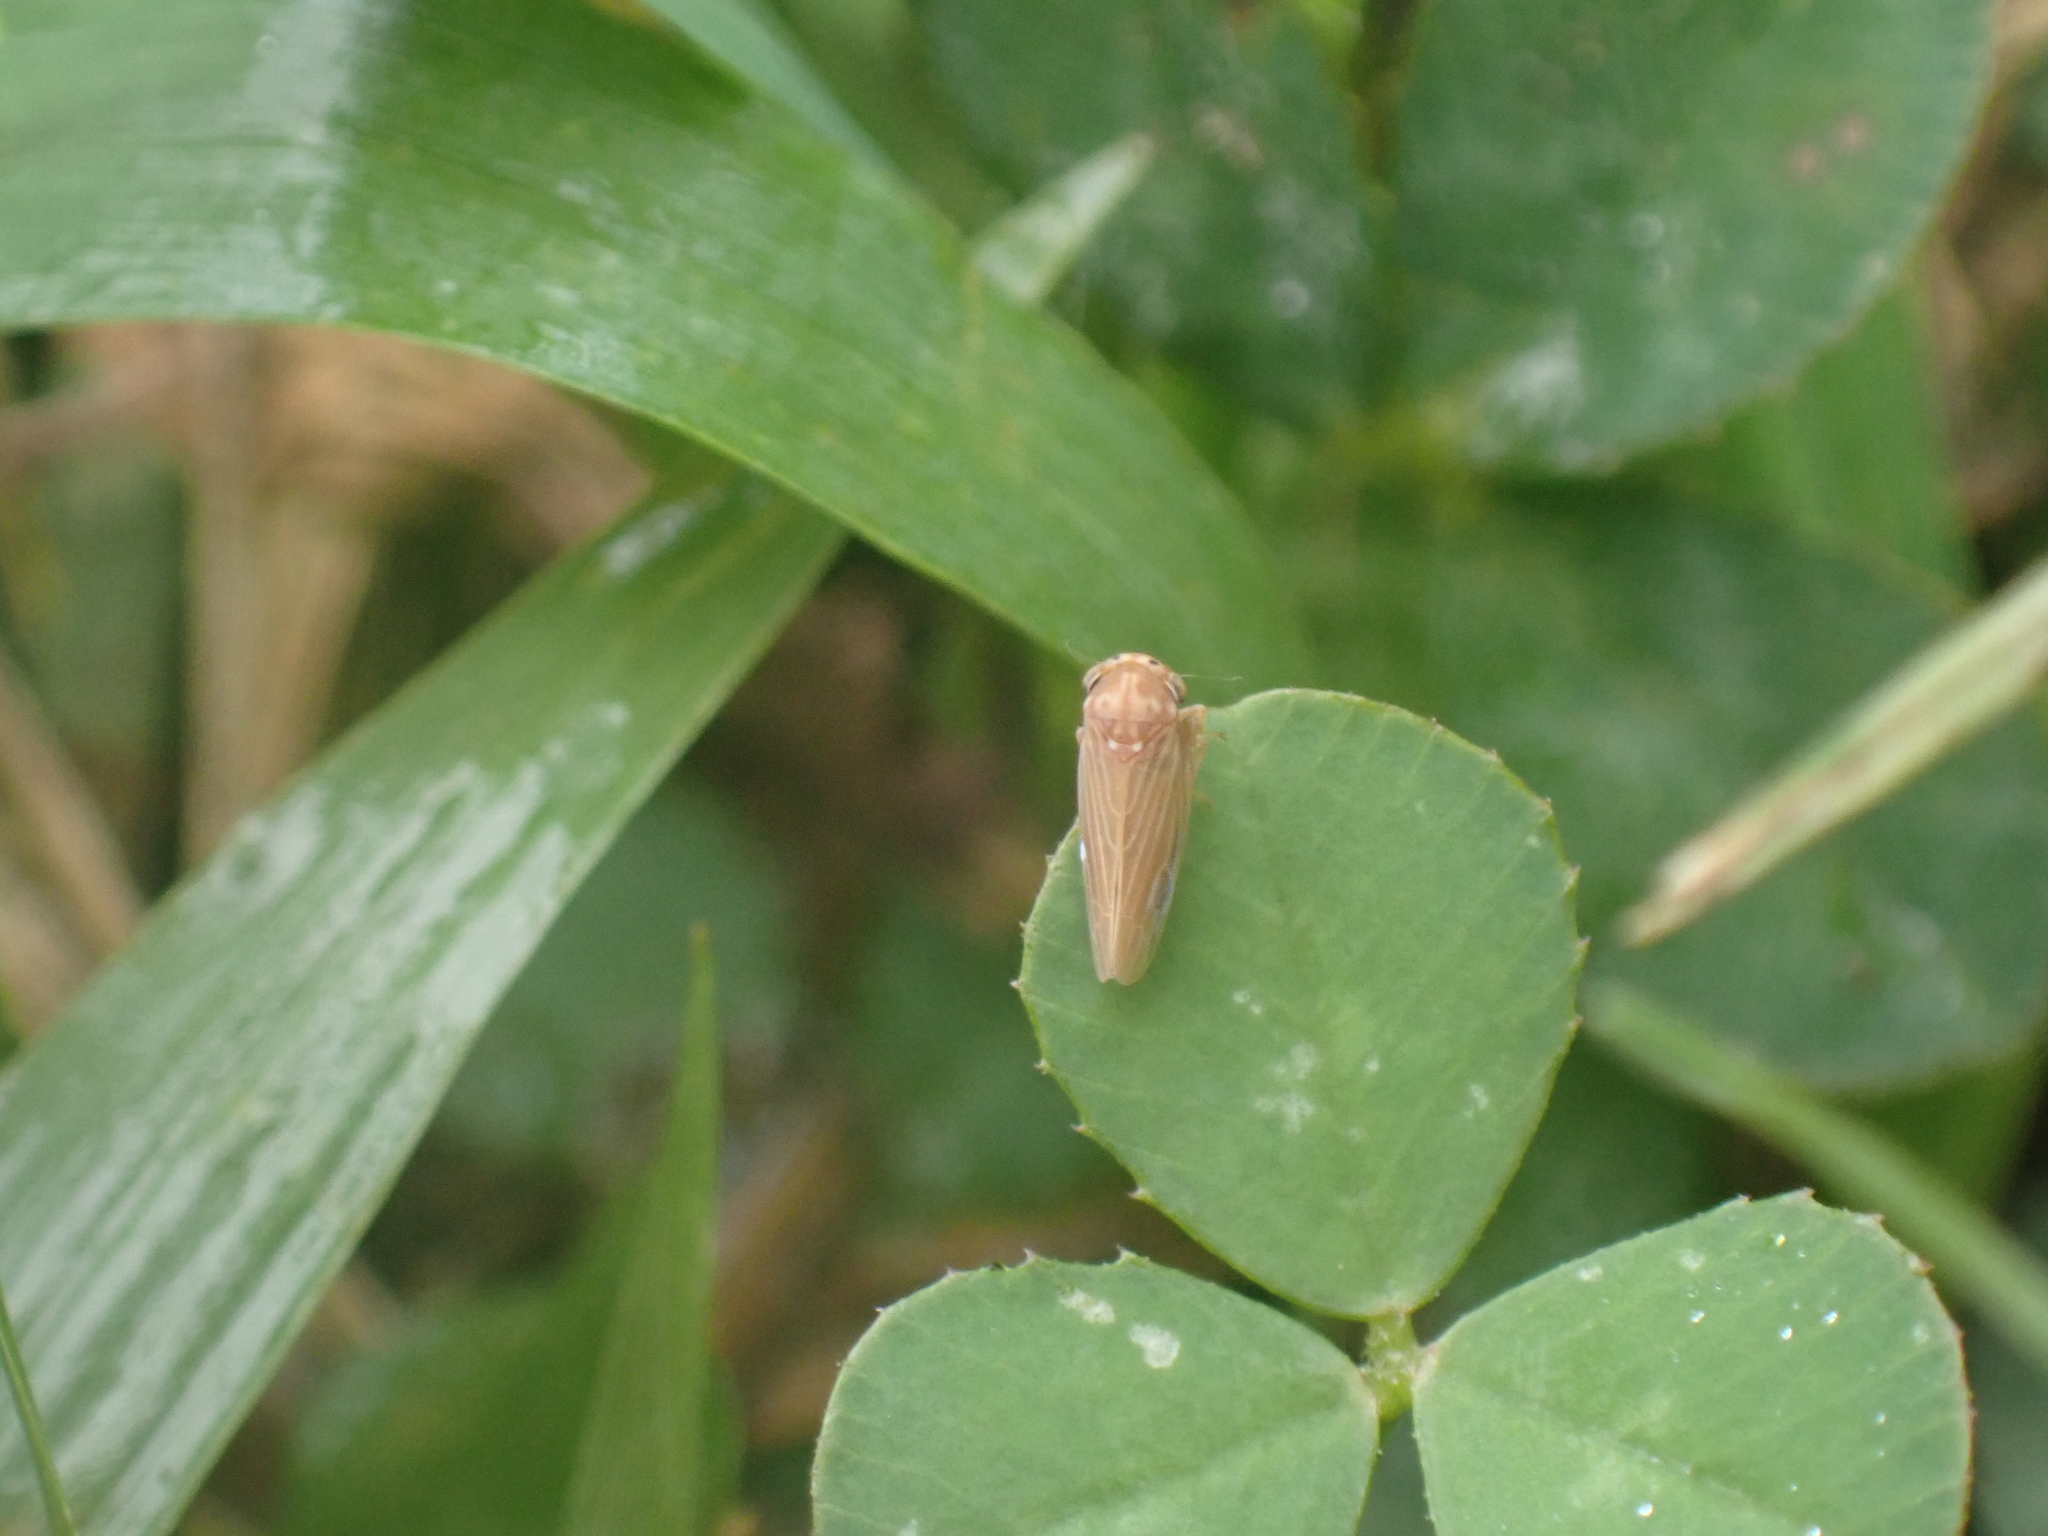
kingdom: Animalia
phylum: Arthropoda
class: Insecta
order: Hemiptera
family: Cicadellidae
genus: Agallia
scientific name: Agallia constricta
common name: The constricted leafhopper
